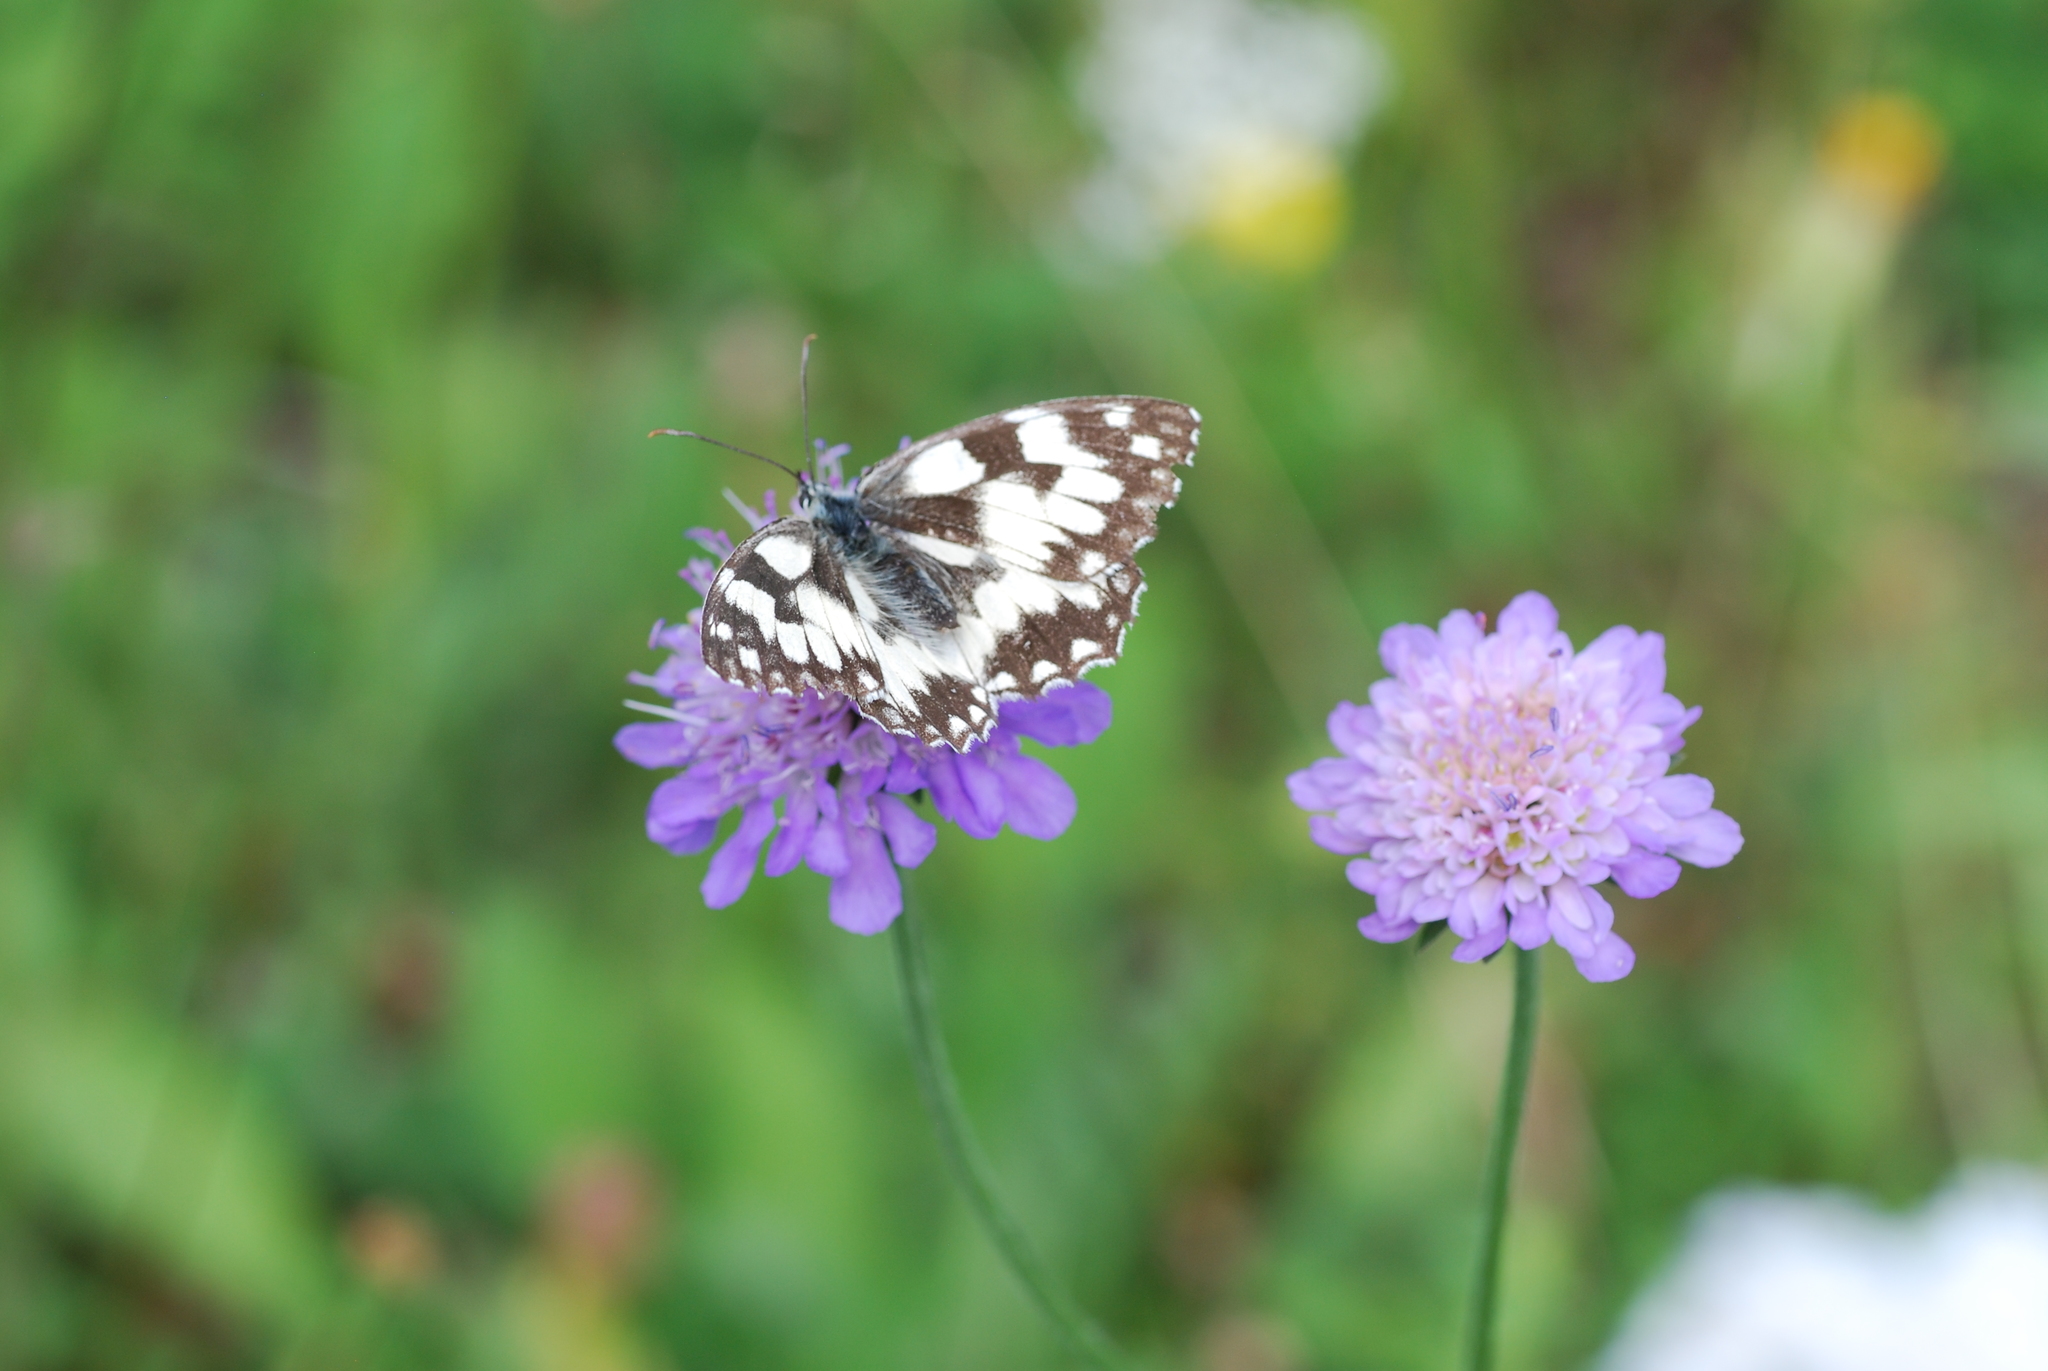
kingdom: Animalia
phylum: Arthropoda
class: Insecta
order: Lepidoptera
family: Nymphalidae
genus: Melanargia
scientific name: Melanargia galathea
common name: Marbled white
